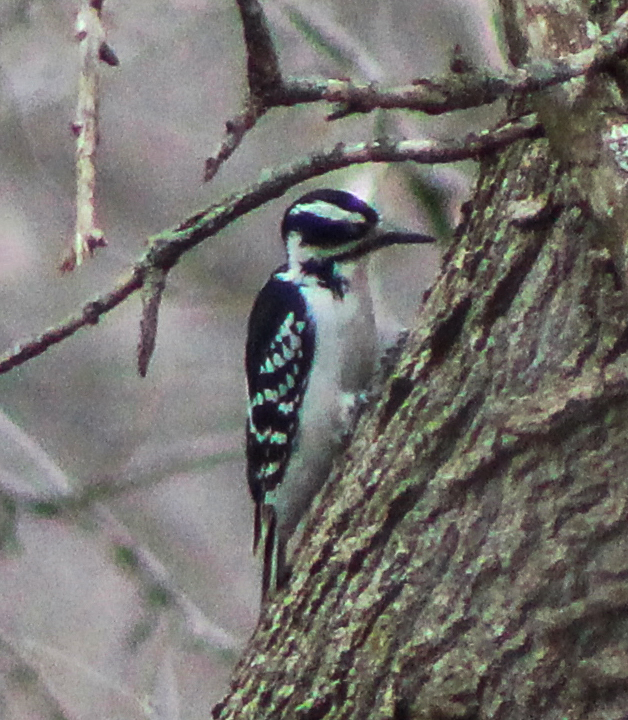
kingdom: Animalia
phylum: Chordata
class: Aves
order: Piciformes
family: Picidae
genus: Leuconotopicus
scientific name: Leuconotopicus villosus
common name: Hairy woodpecker
